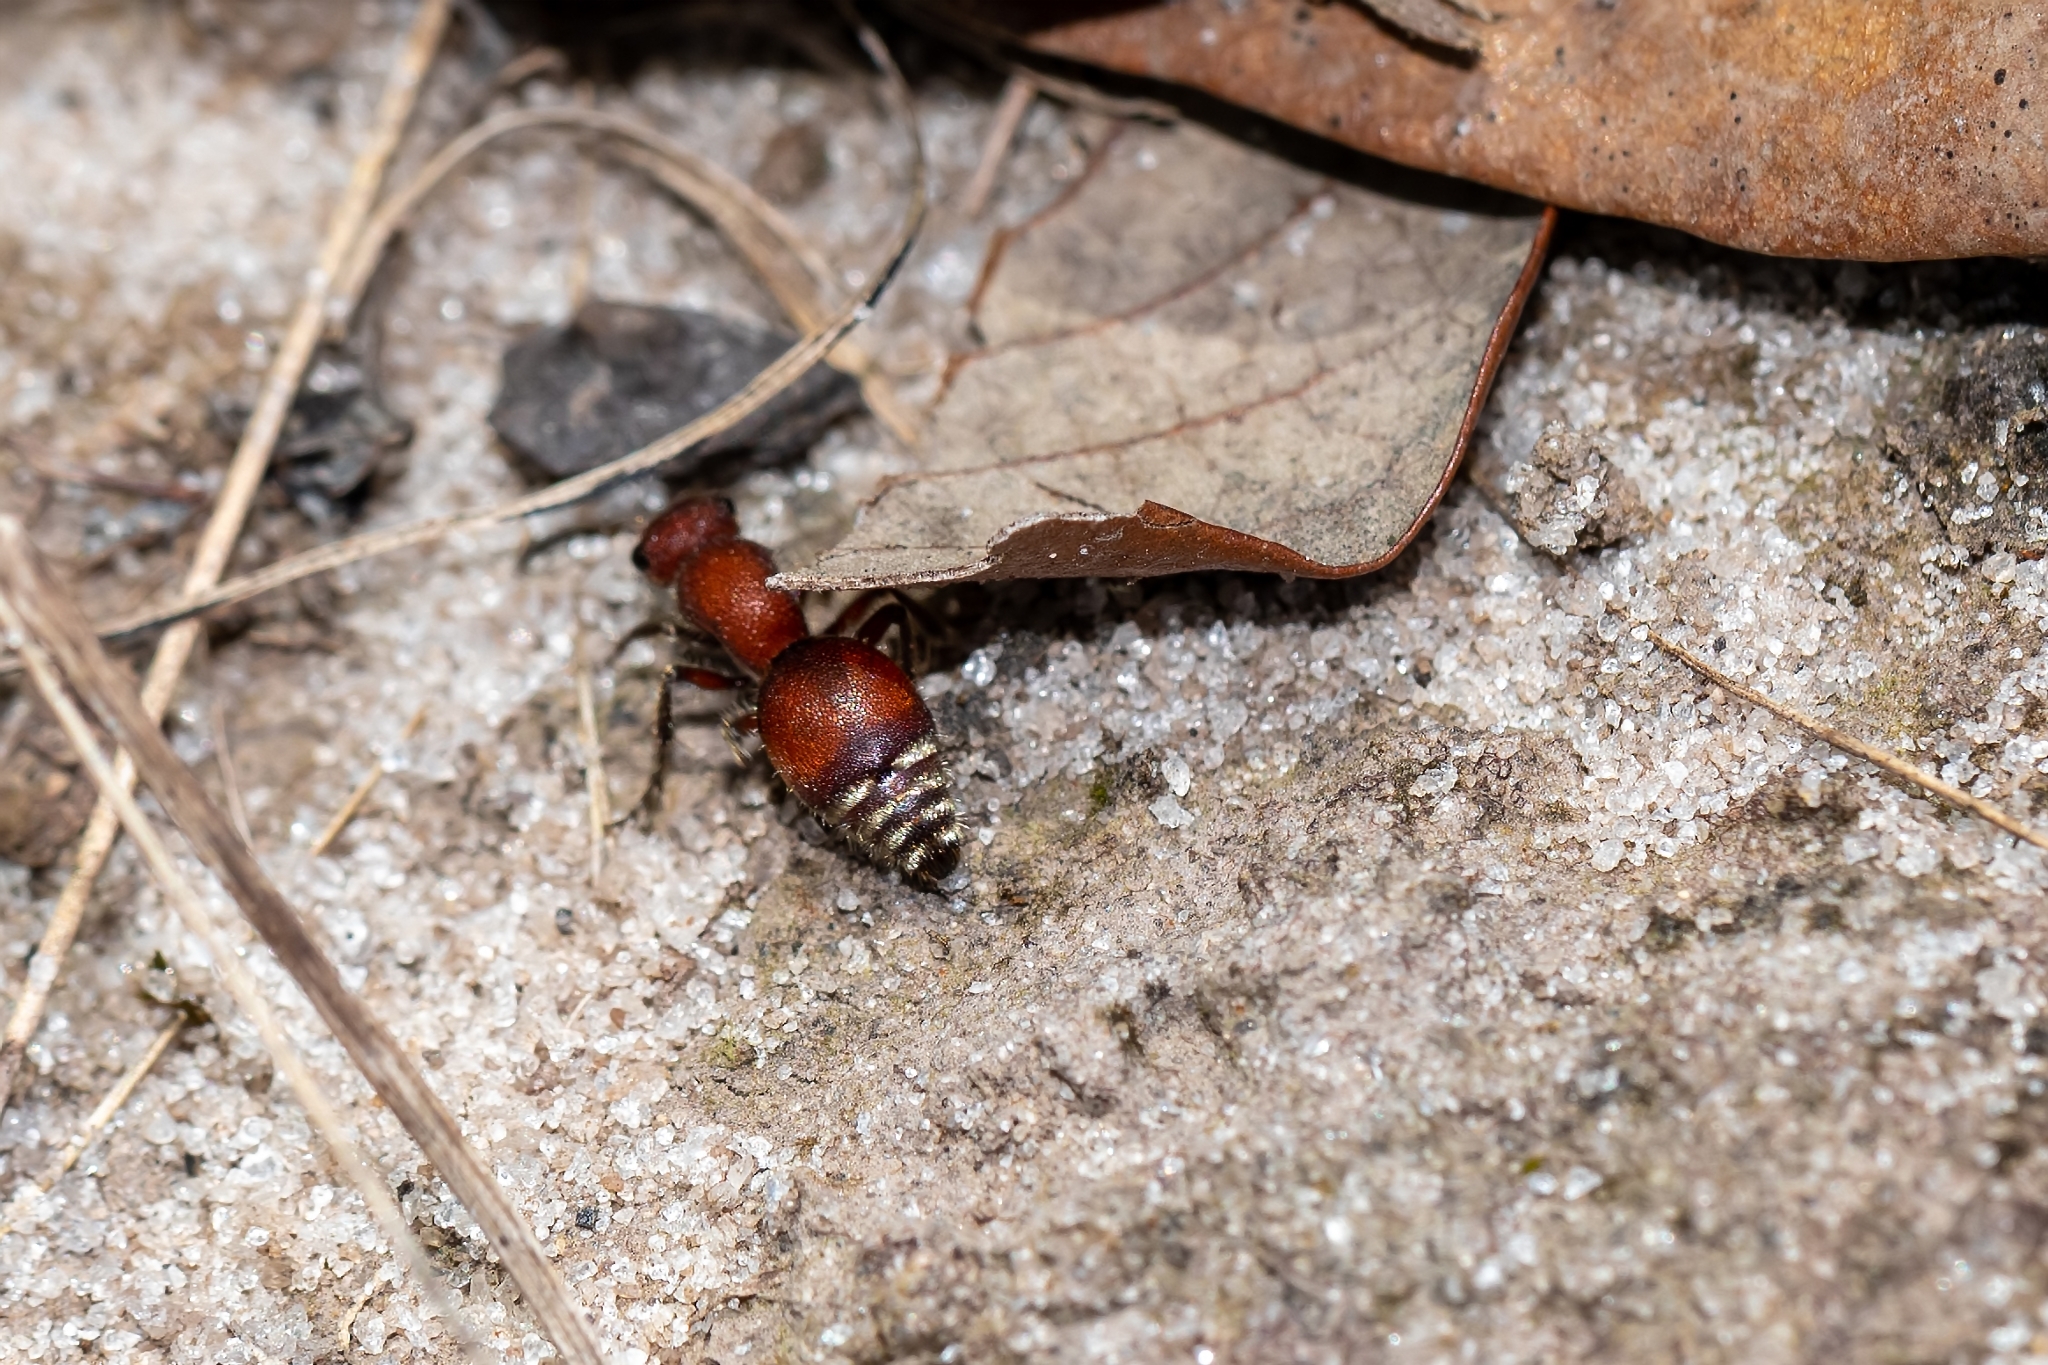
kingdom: Animalia
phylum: Arthropoda
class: Insecta
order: Hymenoptera
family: Mutillidae
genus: Pseudomethoca
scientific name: Pseudomethoca sanbornii
